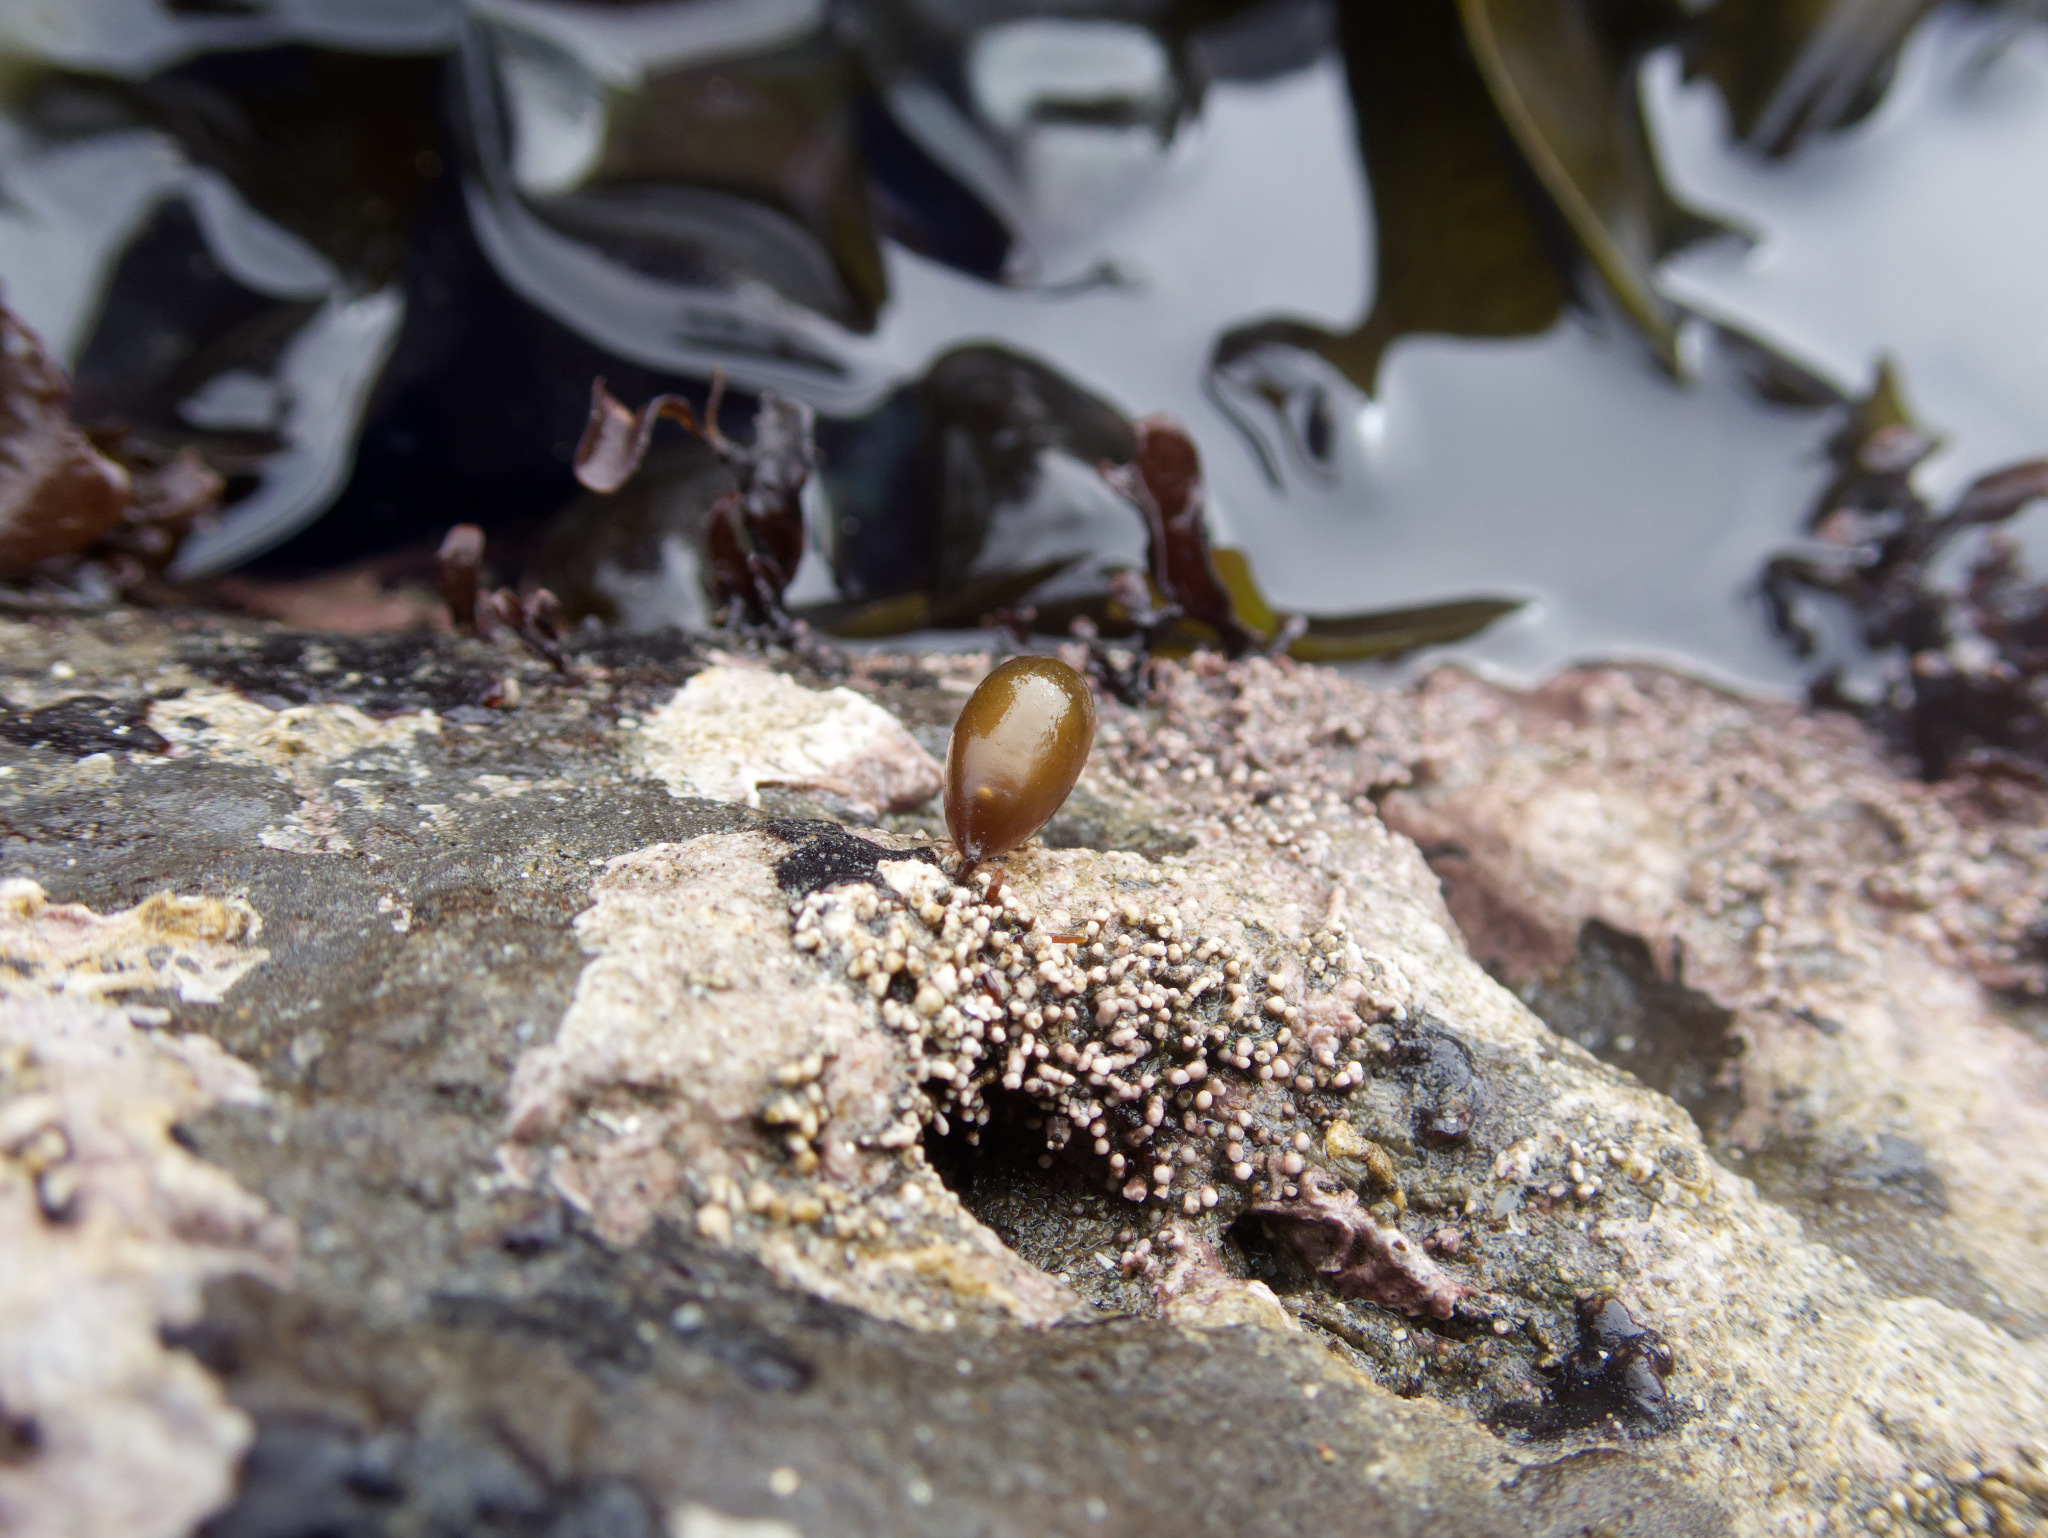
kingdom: Plantae
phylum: Rhodophyta
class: Florideophyceae
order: Palmariales
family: Palmariaceae
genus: Halosaccion
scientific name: Halosaccion glandiforme
